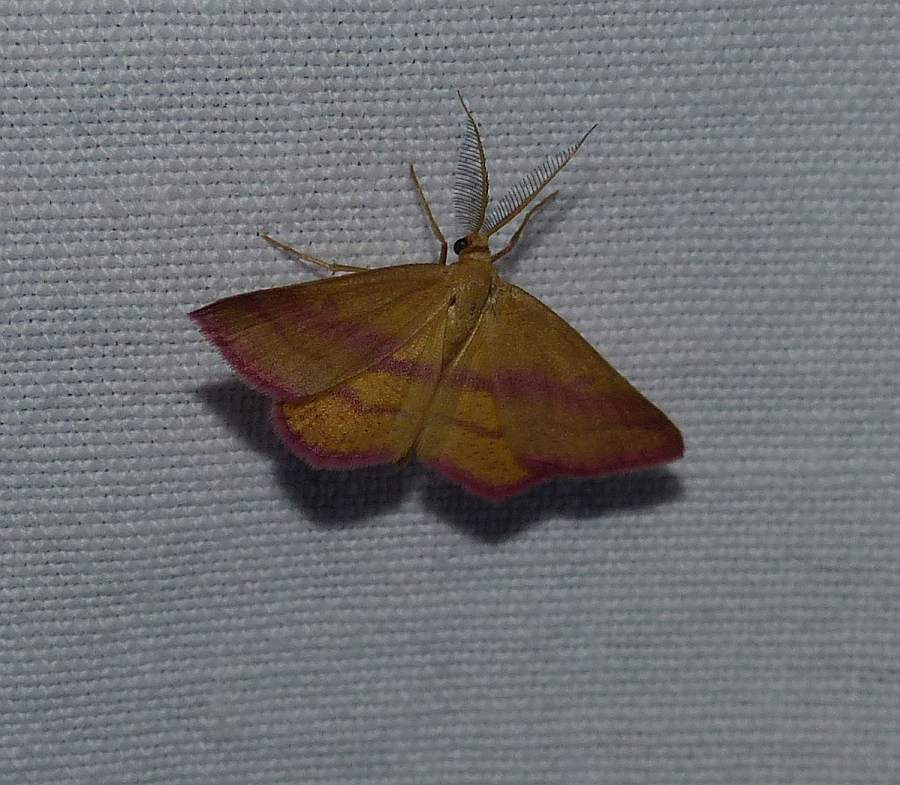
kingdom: Animalia
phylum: Arthropoda
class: Insecta
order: Lepidoptera
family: Geometridae
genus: Haematopis
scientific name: Haematopis grataria
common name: Chickweed geometer
